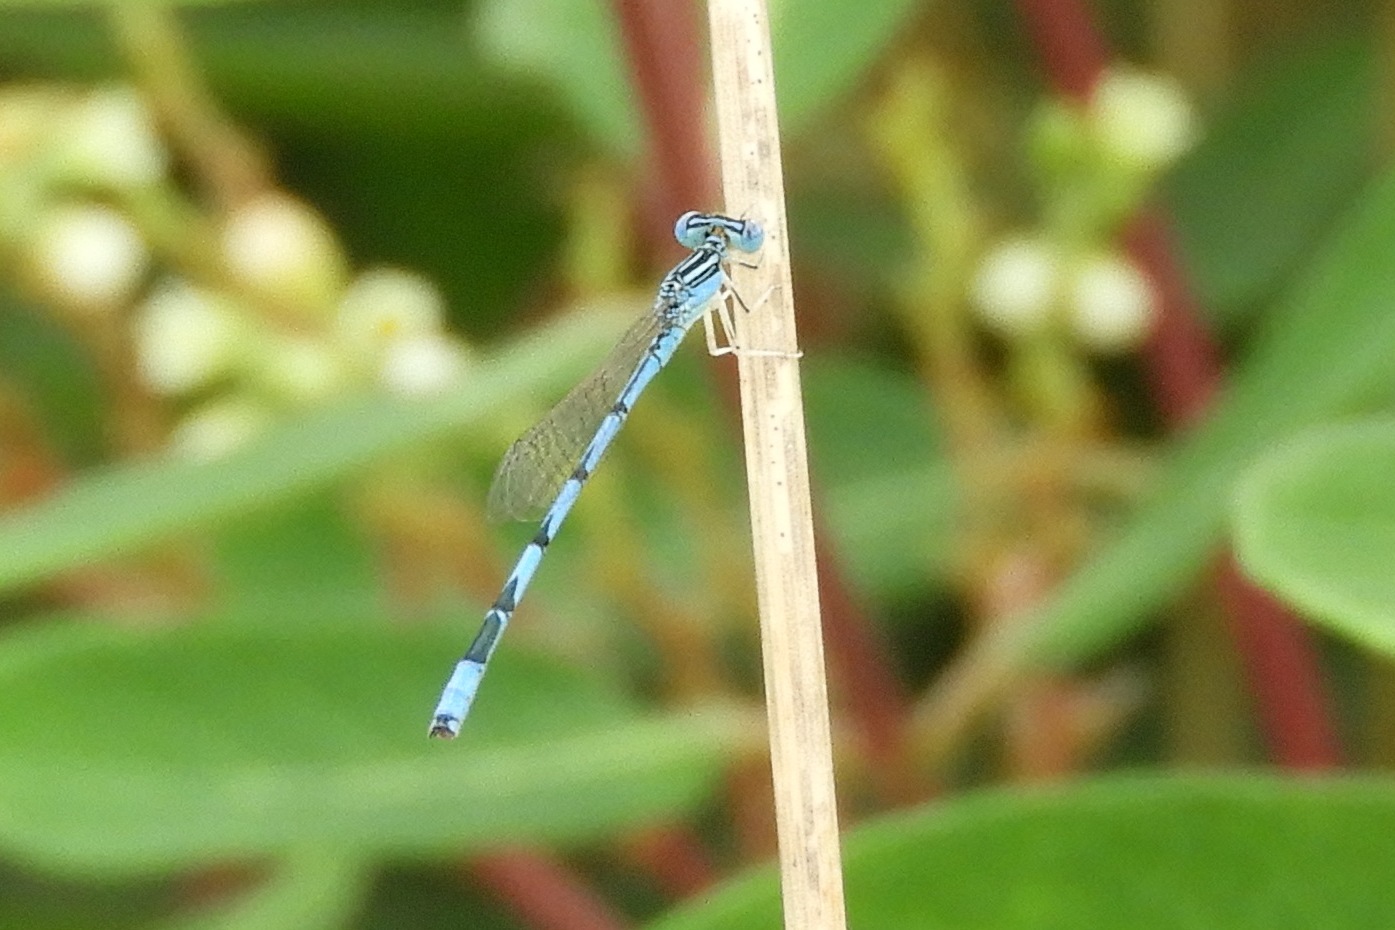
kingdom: Animalia
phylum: Arthropoda
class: Insecta
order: Odonata
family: Coenagrionidae
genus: Enallagma
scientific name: Enallagma basidens
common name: Double-striped bluet
